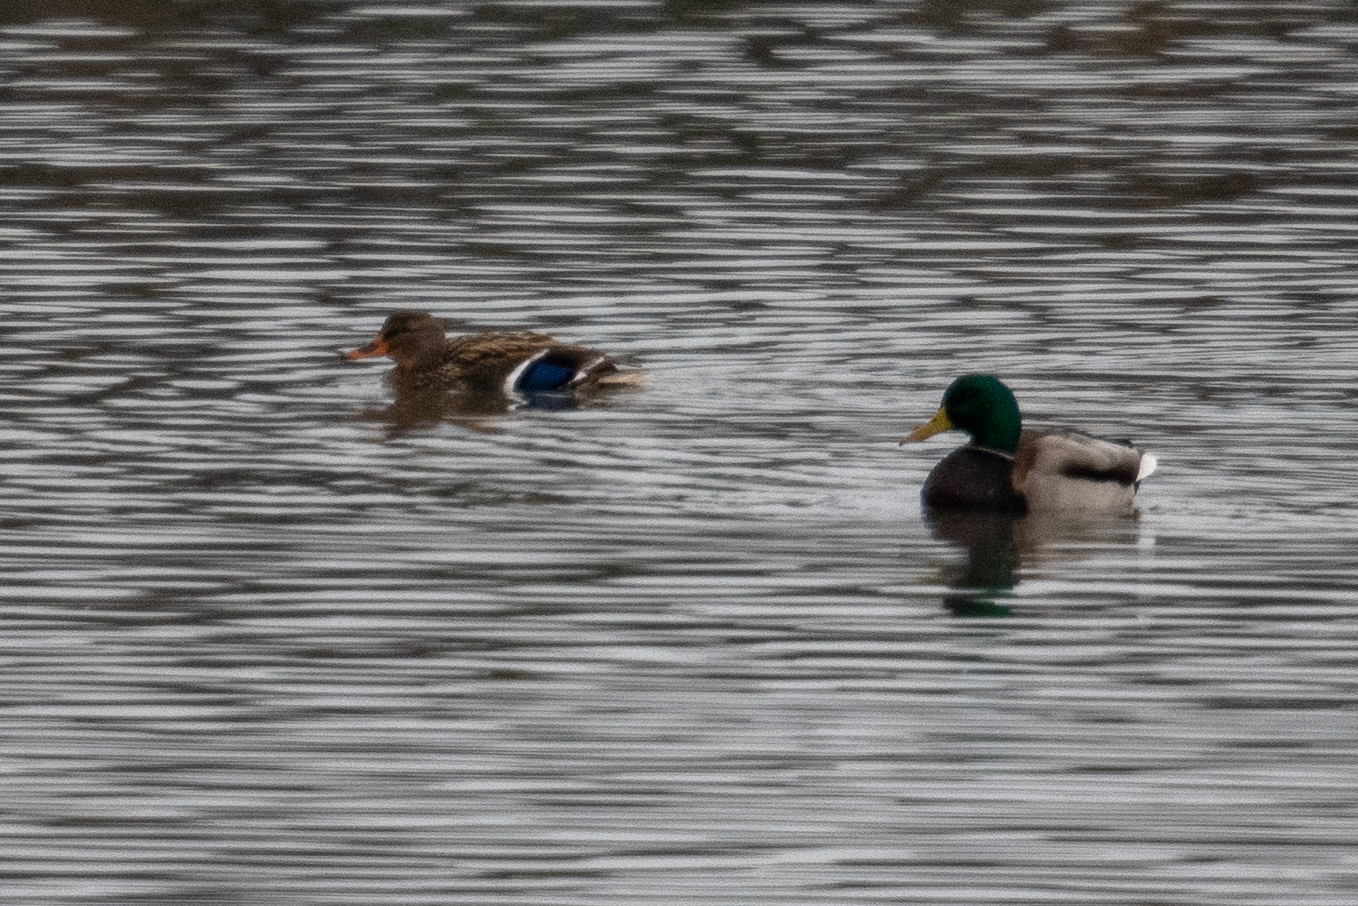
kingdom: Animalia
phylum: Chordata
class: Aves
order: Anseriformes
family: Anatidae
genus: Anas
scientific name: Anas platyrhynchos
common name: Mallard
